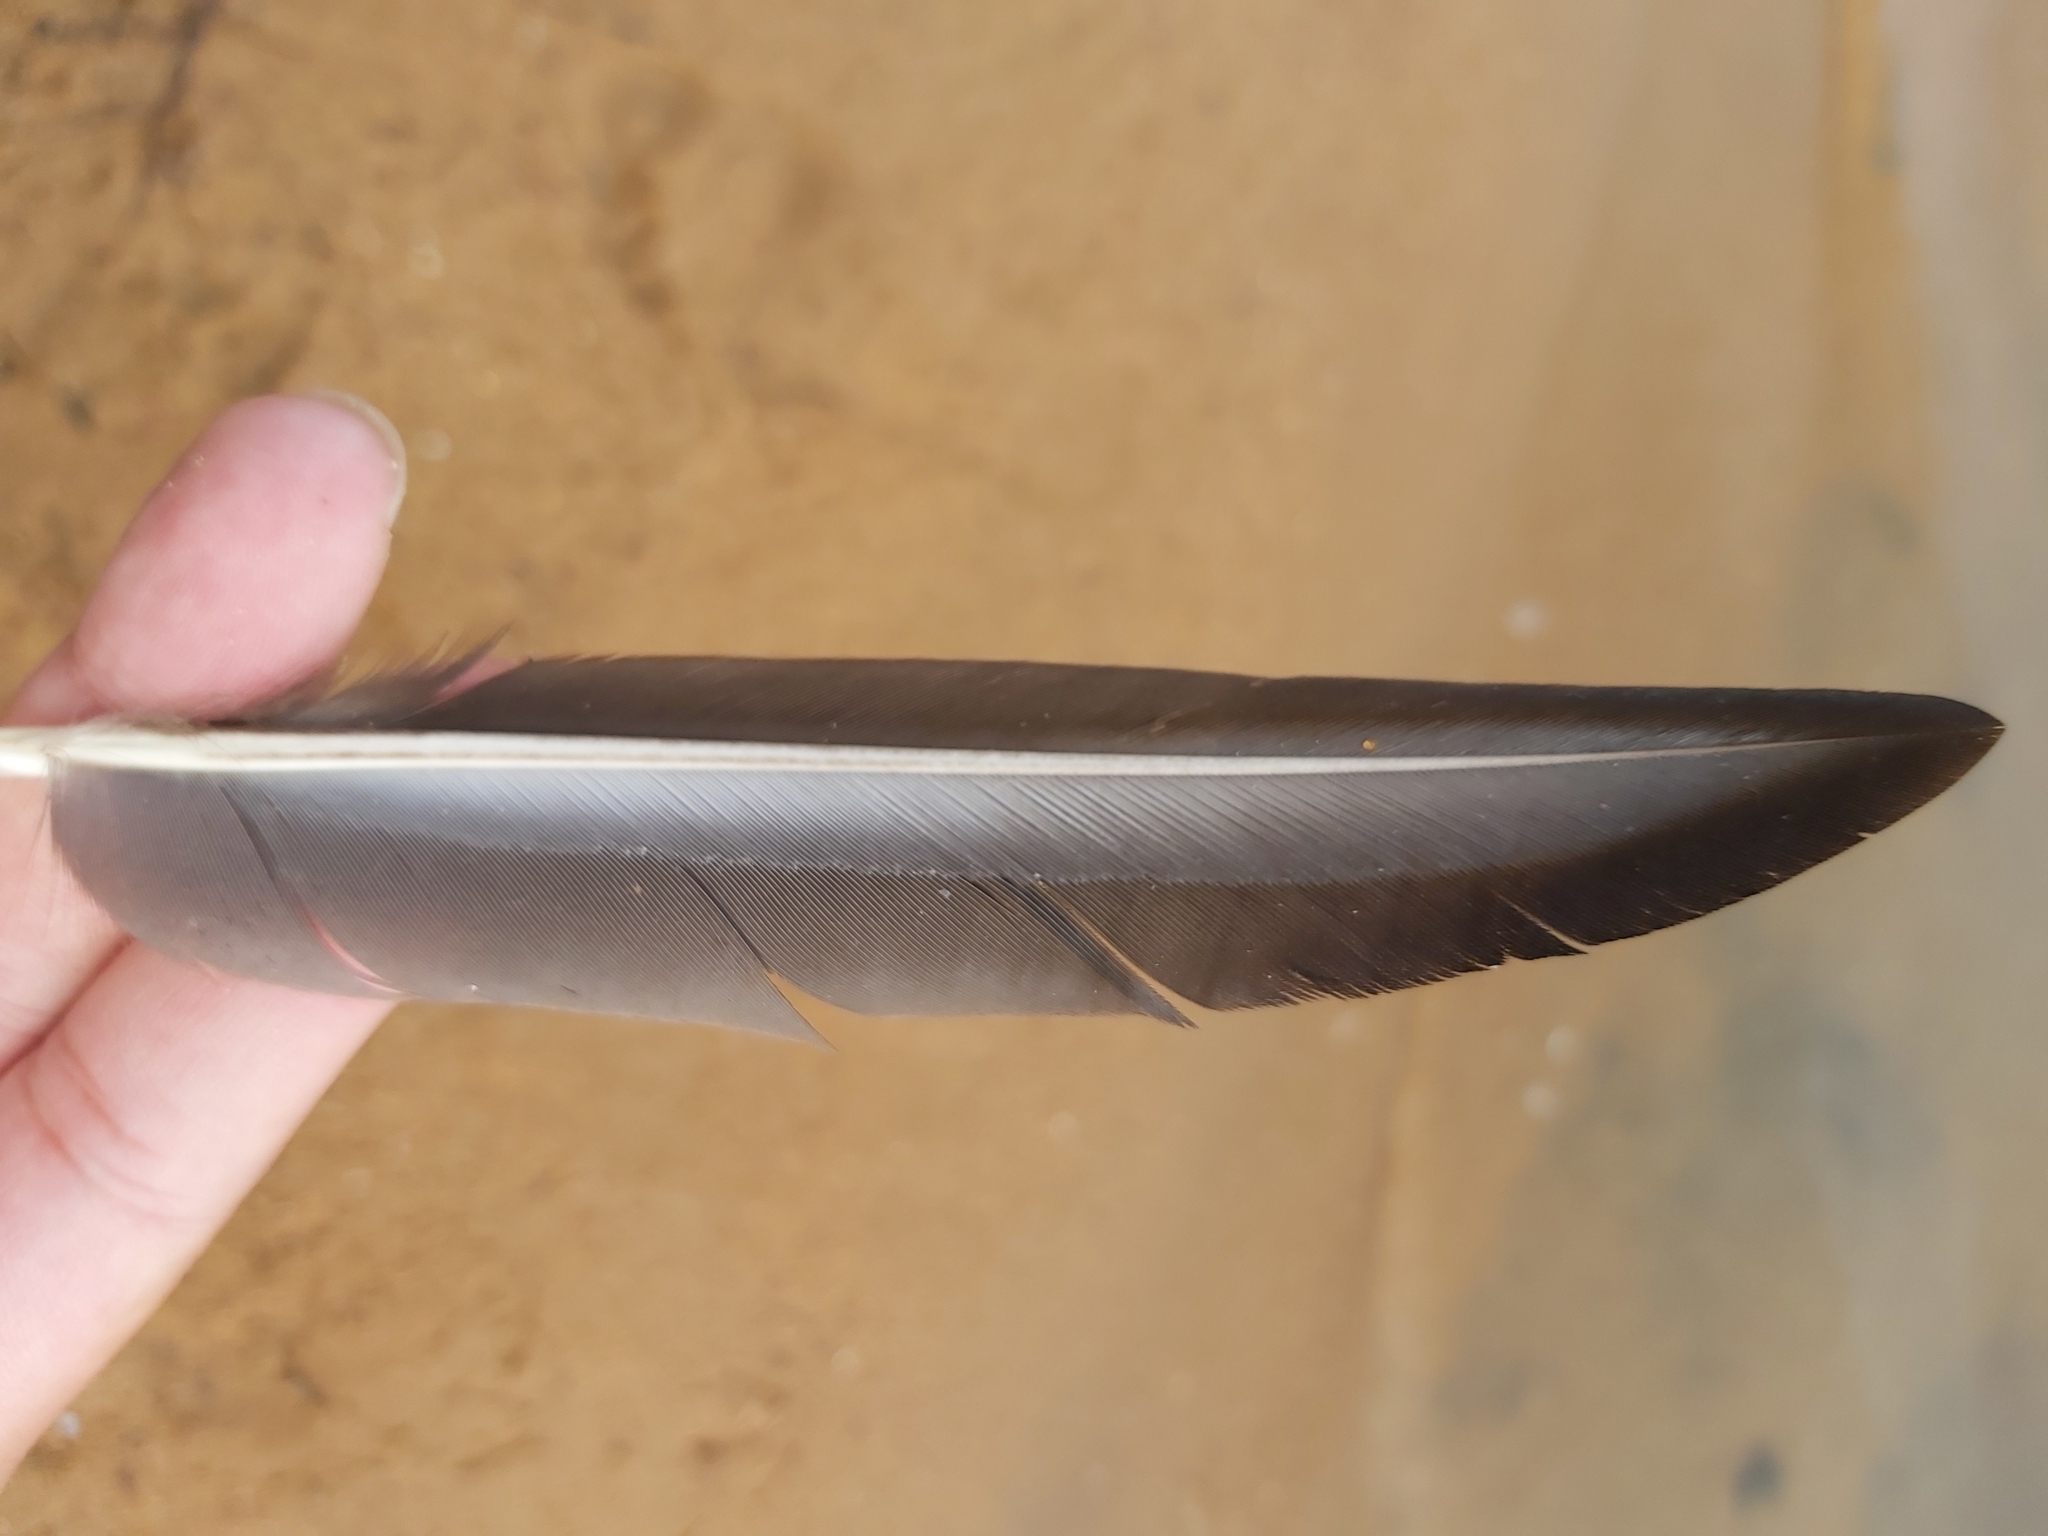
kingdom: Animalia
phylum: Chordata
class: Aves
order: Anseriformes
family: Anatidae
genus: Anas
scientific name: Anas superciliosa
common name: Pacific black duck
